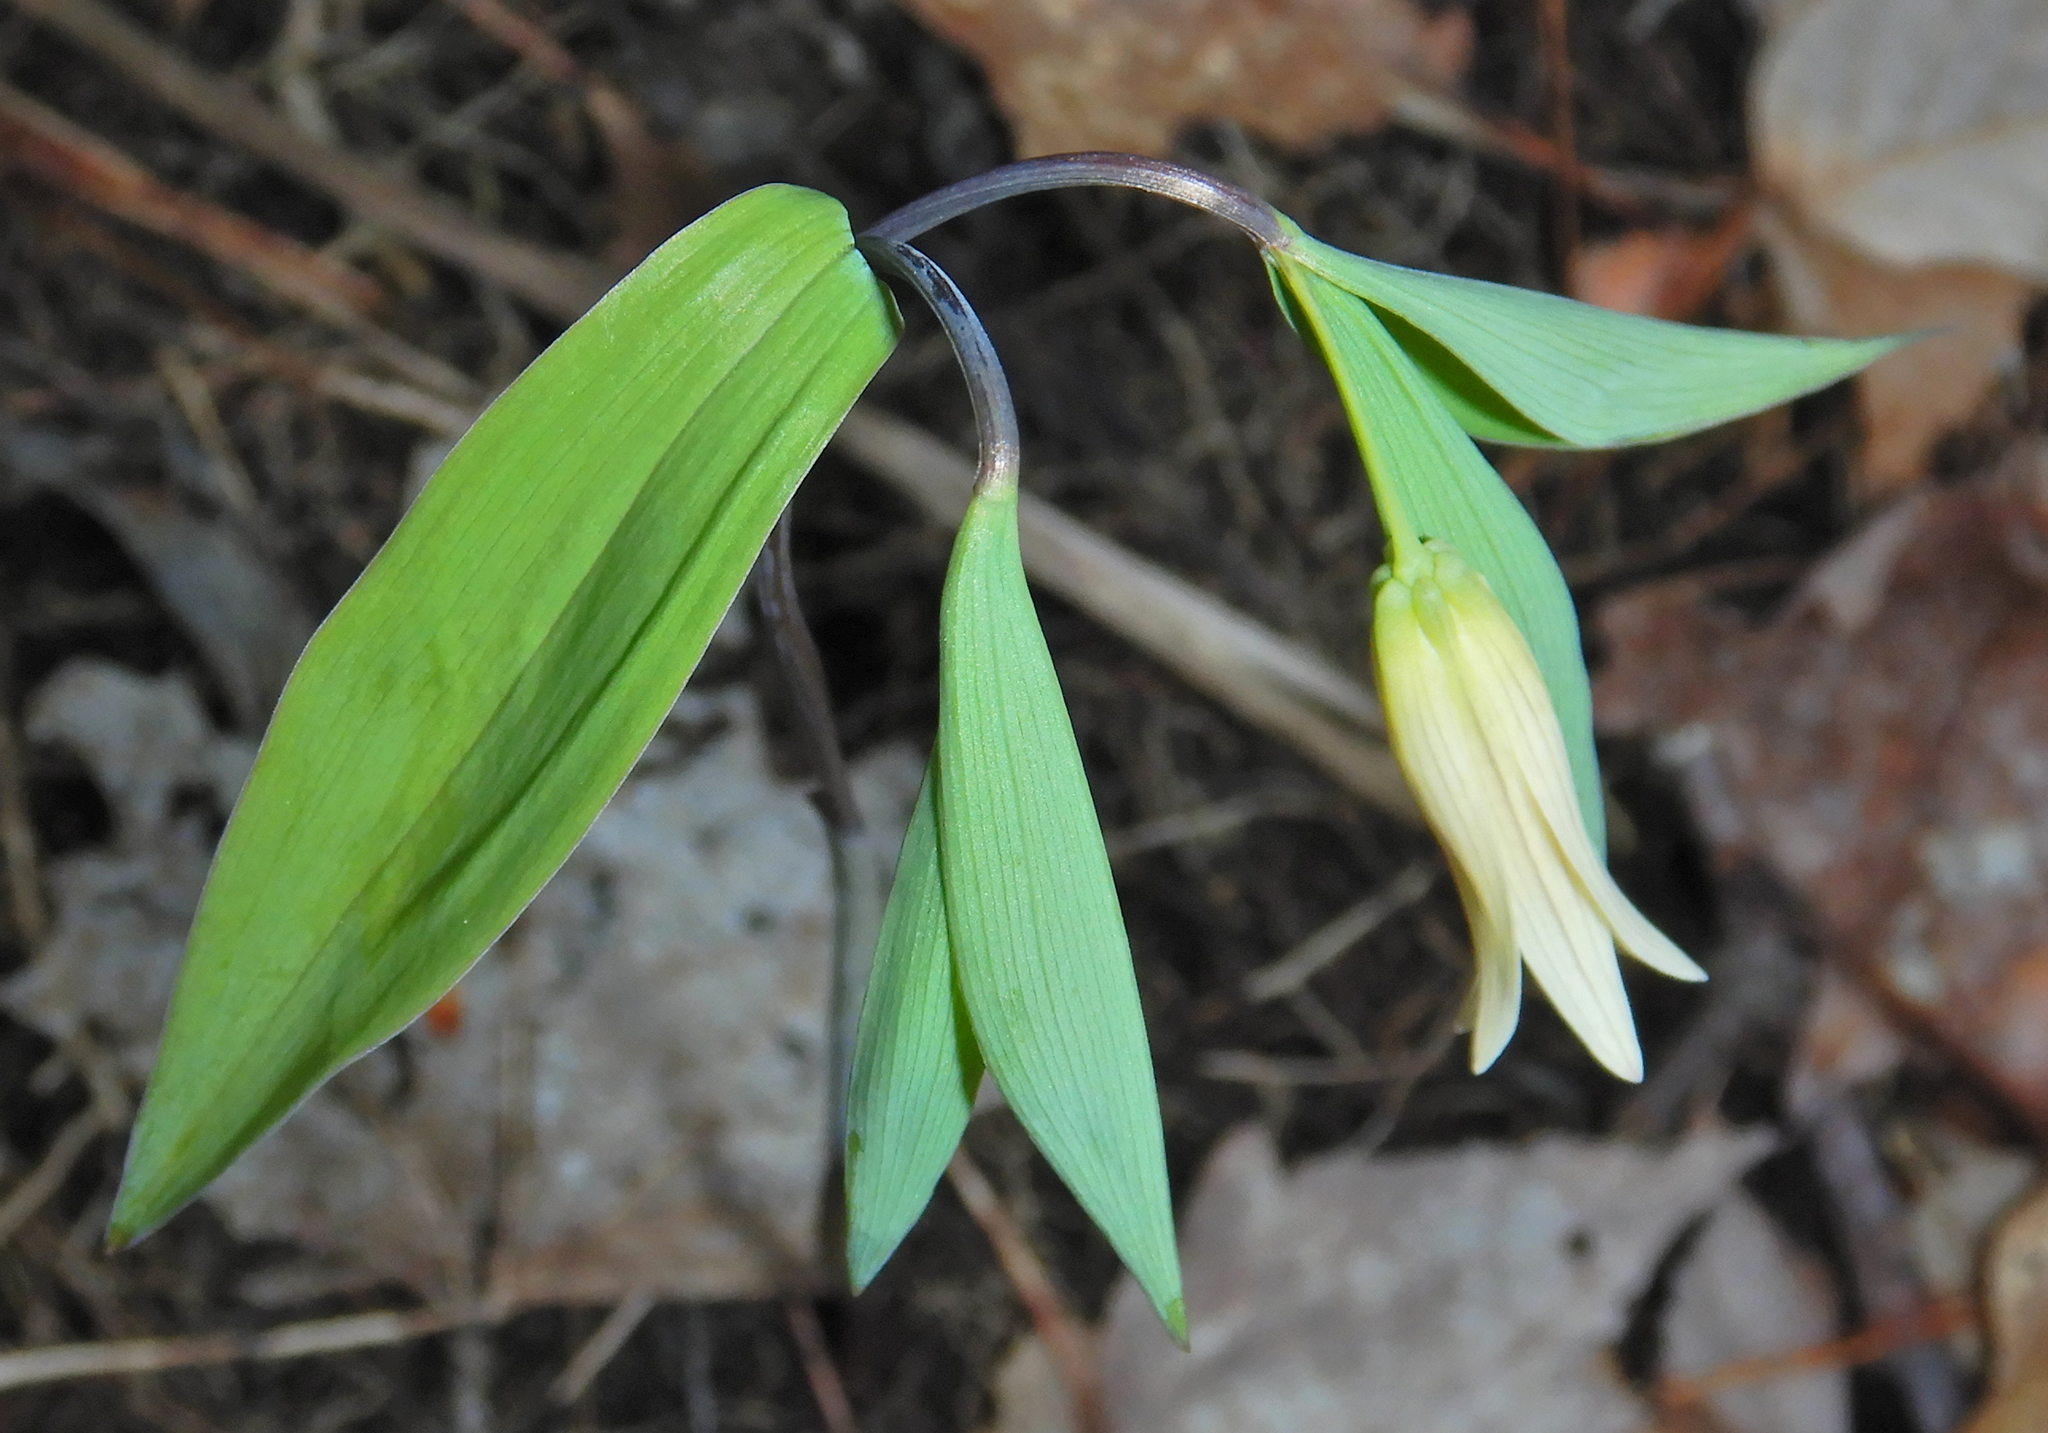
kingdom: Plantae
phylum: Tracheophyta
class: Liliopsida
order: Liliales
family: Colchicaceae
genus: Uvularia
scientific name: Uvularia sessilifolia
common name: Straw-lily
